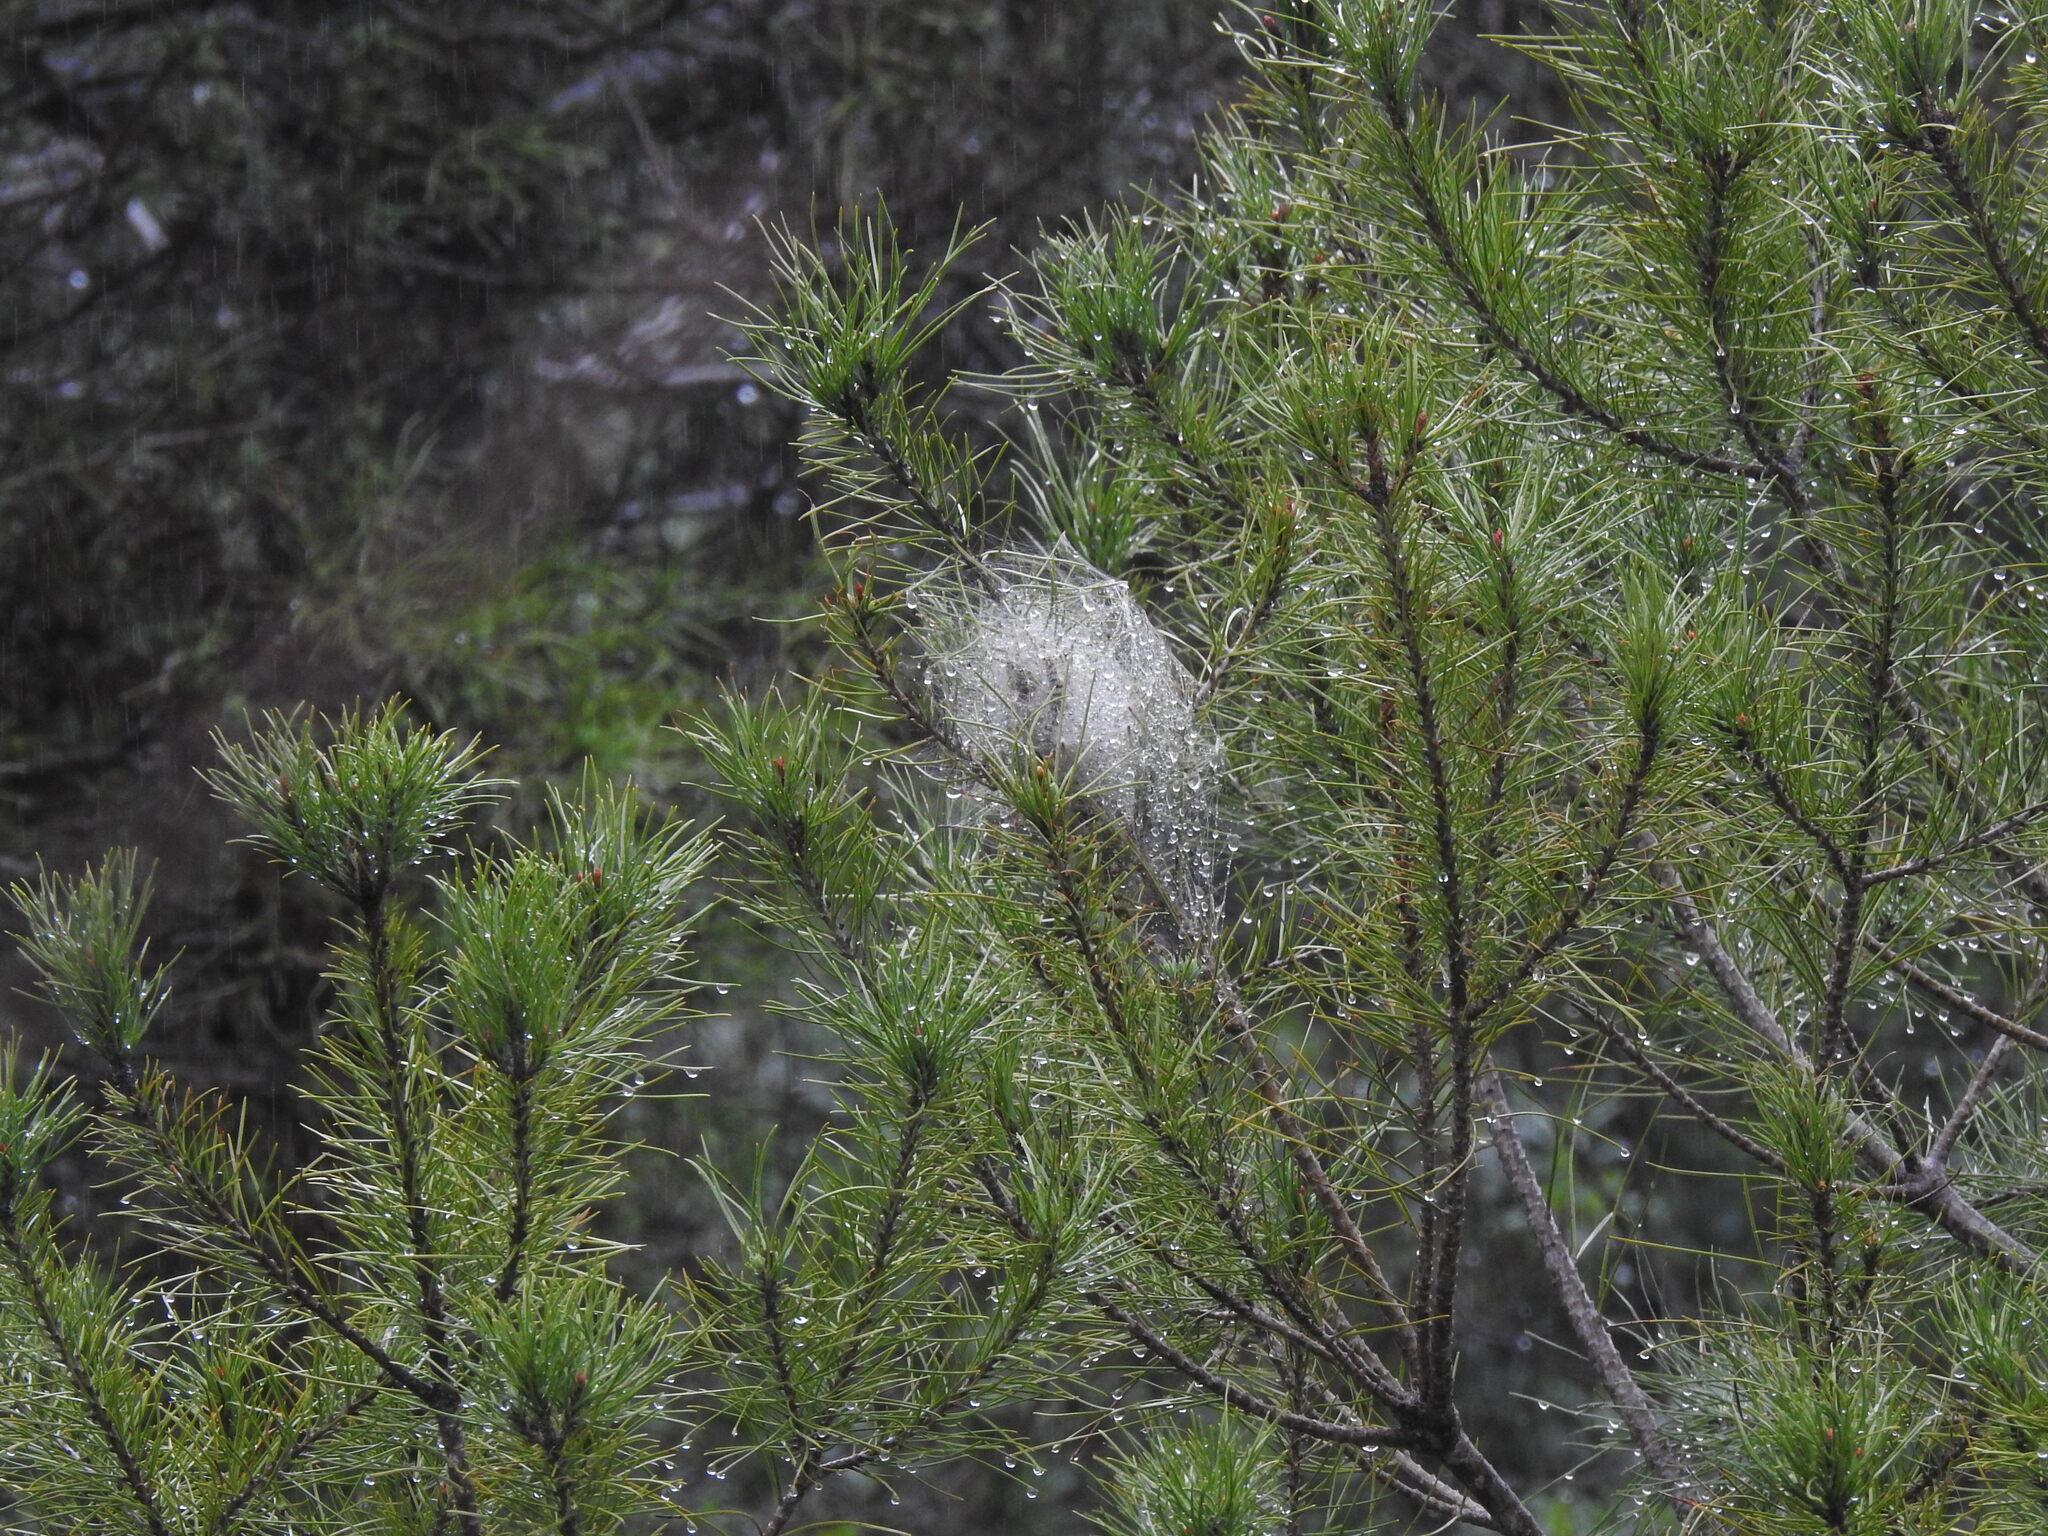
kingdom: Animalia
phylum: Arthropoda
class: Insecta
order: Lepidoptera
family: Notodontidae
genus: Thaumetopoea
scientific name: Thaumetopoea pityocampa
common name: Pine processionary
